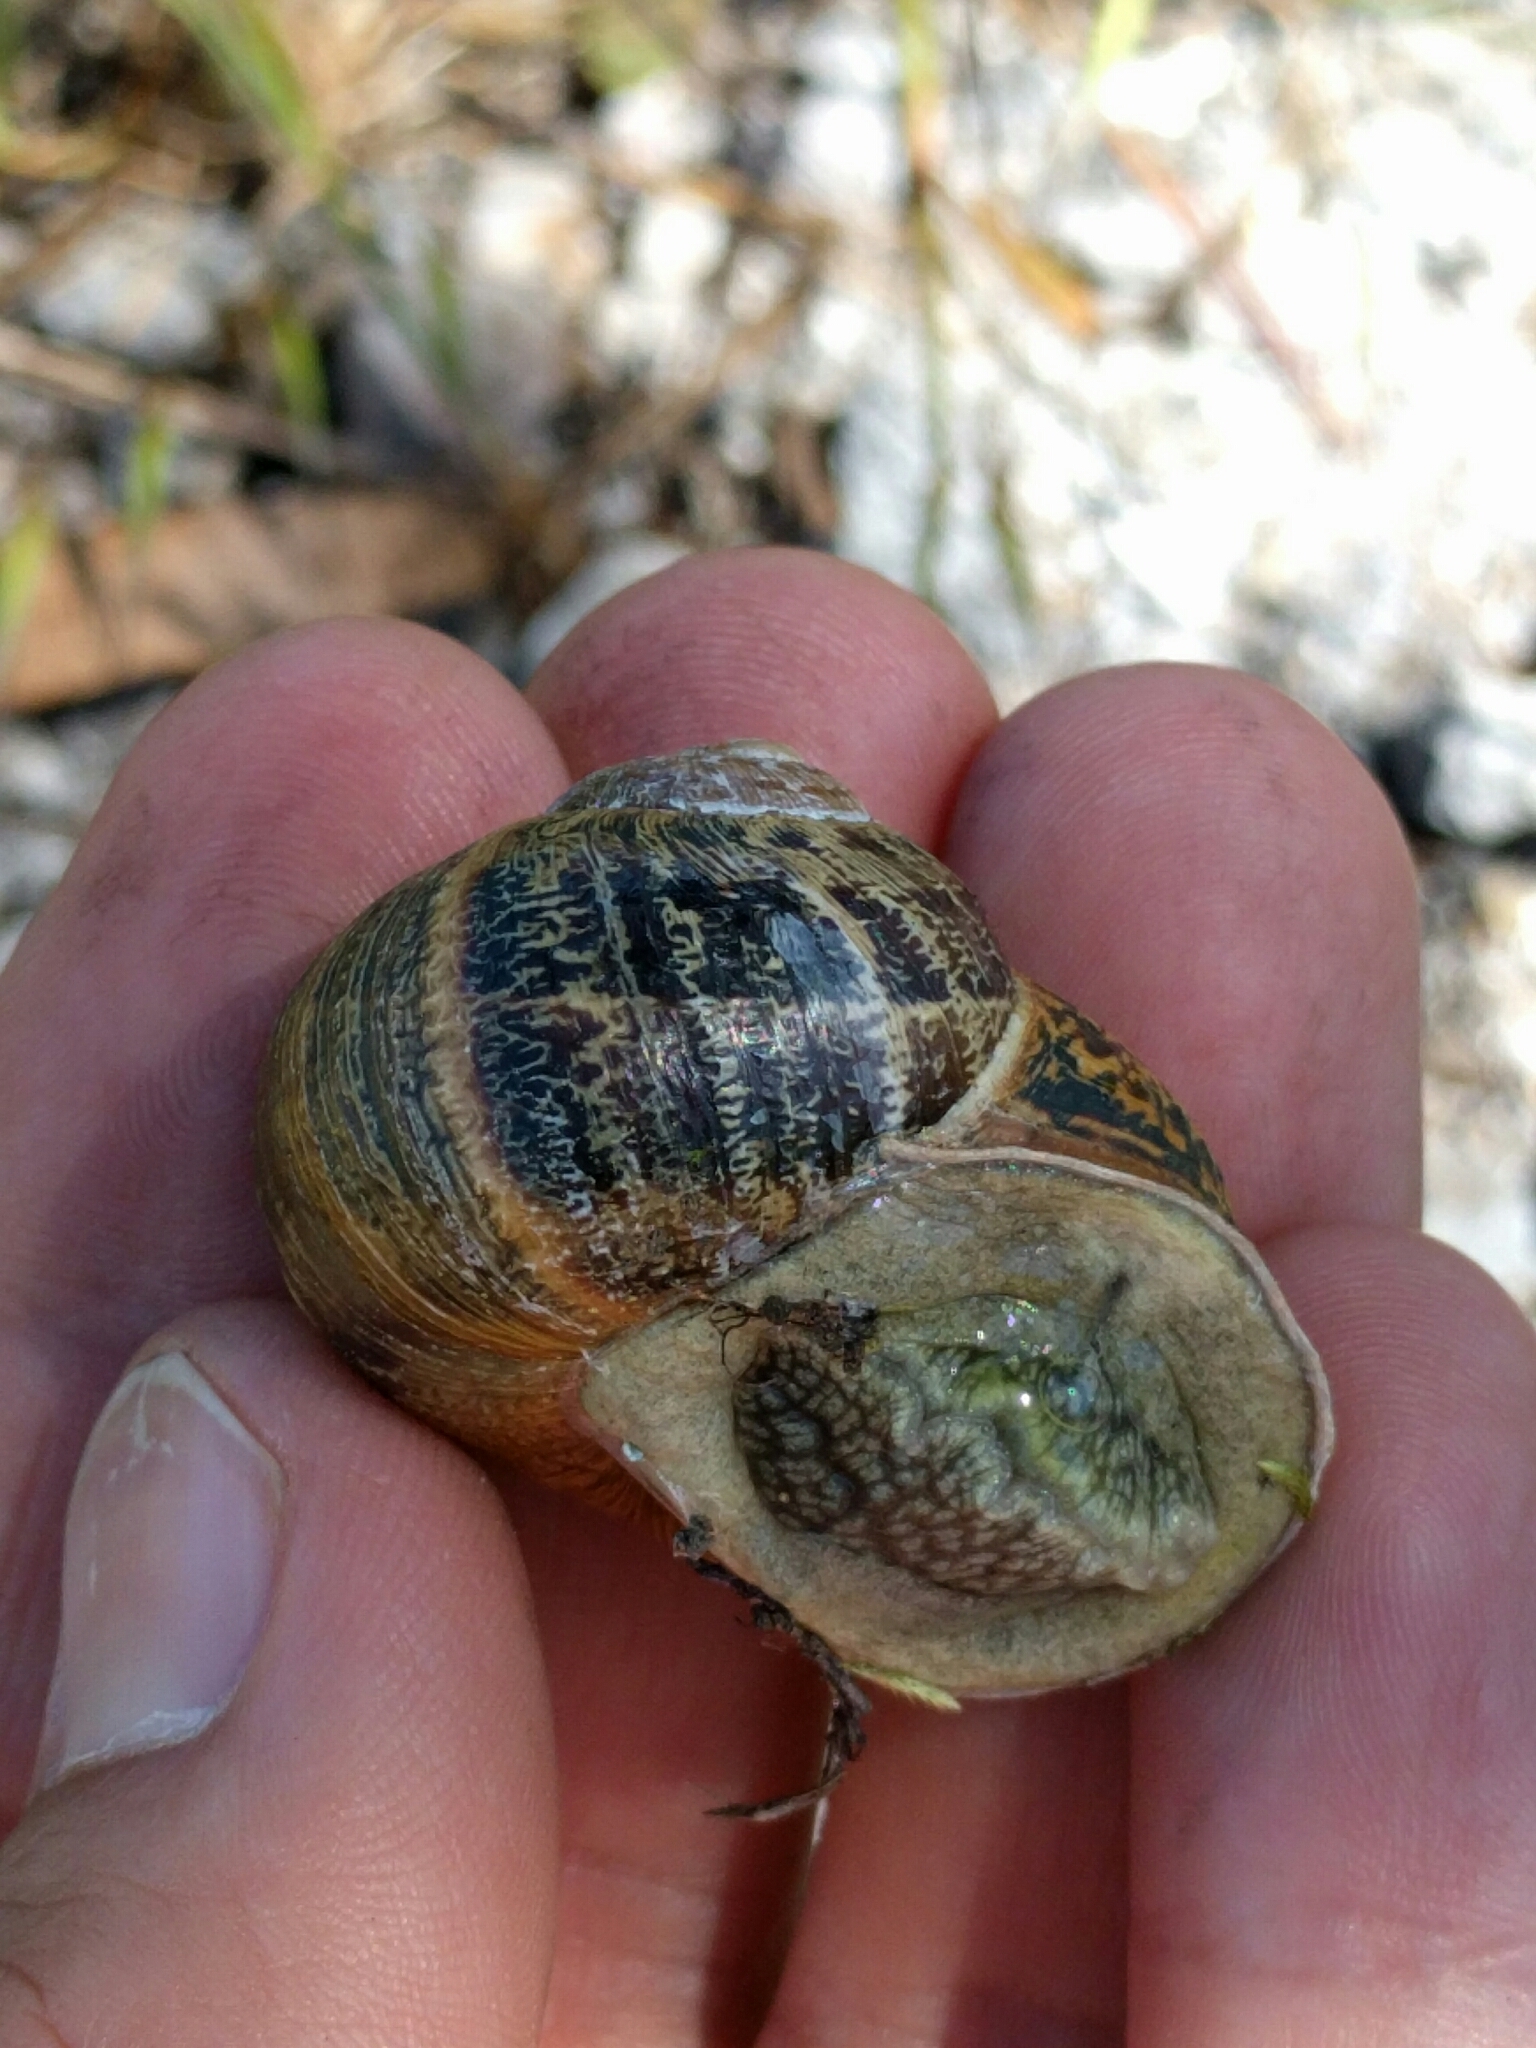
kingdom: Animalia
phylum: Mollusca
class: Gastropoda
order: Stylommatophora
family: Helicidae
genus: Cornu
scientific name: Cornu aspersum
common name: Brown garden snail
